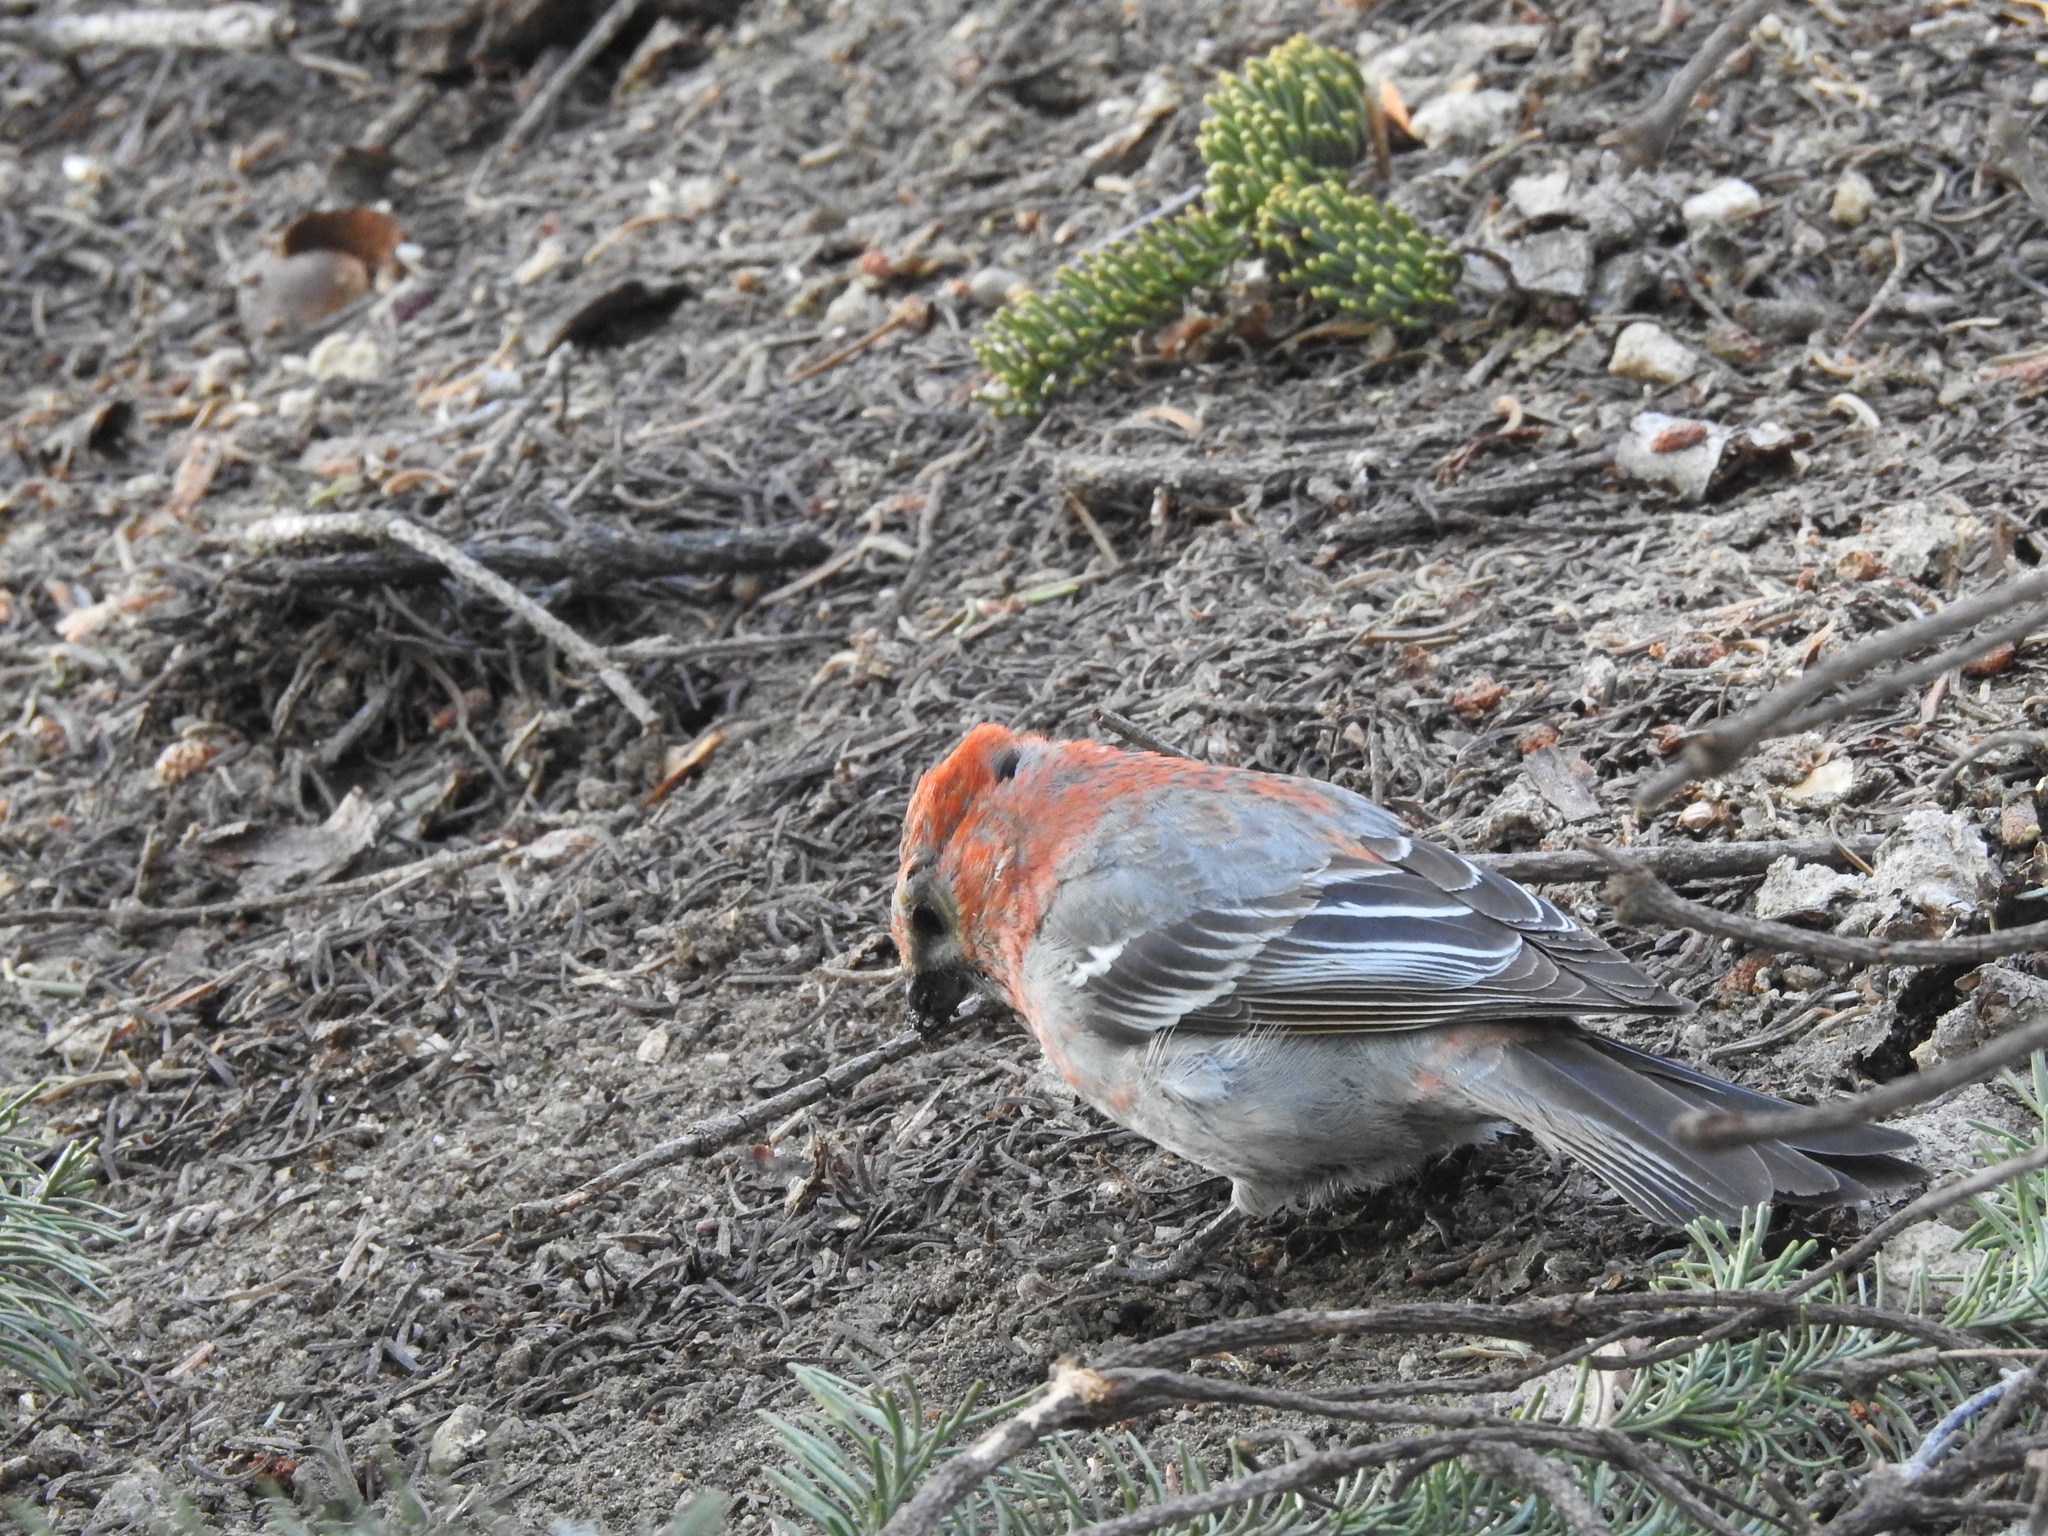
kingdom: Animalia
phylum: Chordata
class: Aves
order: Passeriformes
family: Fringillidae
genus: Pinicola
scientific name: Pinicola enucleator
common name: Pine grosbeak
